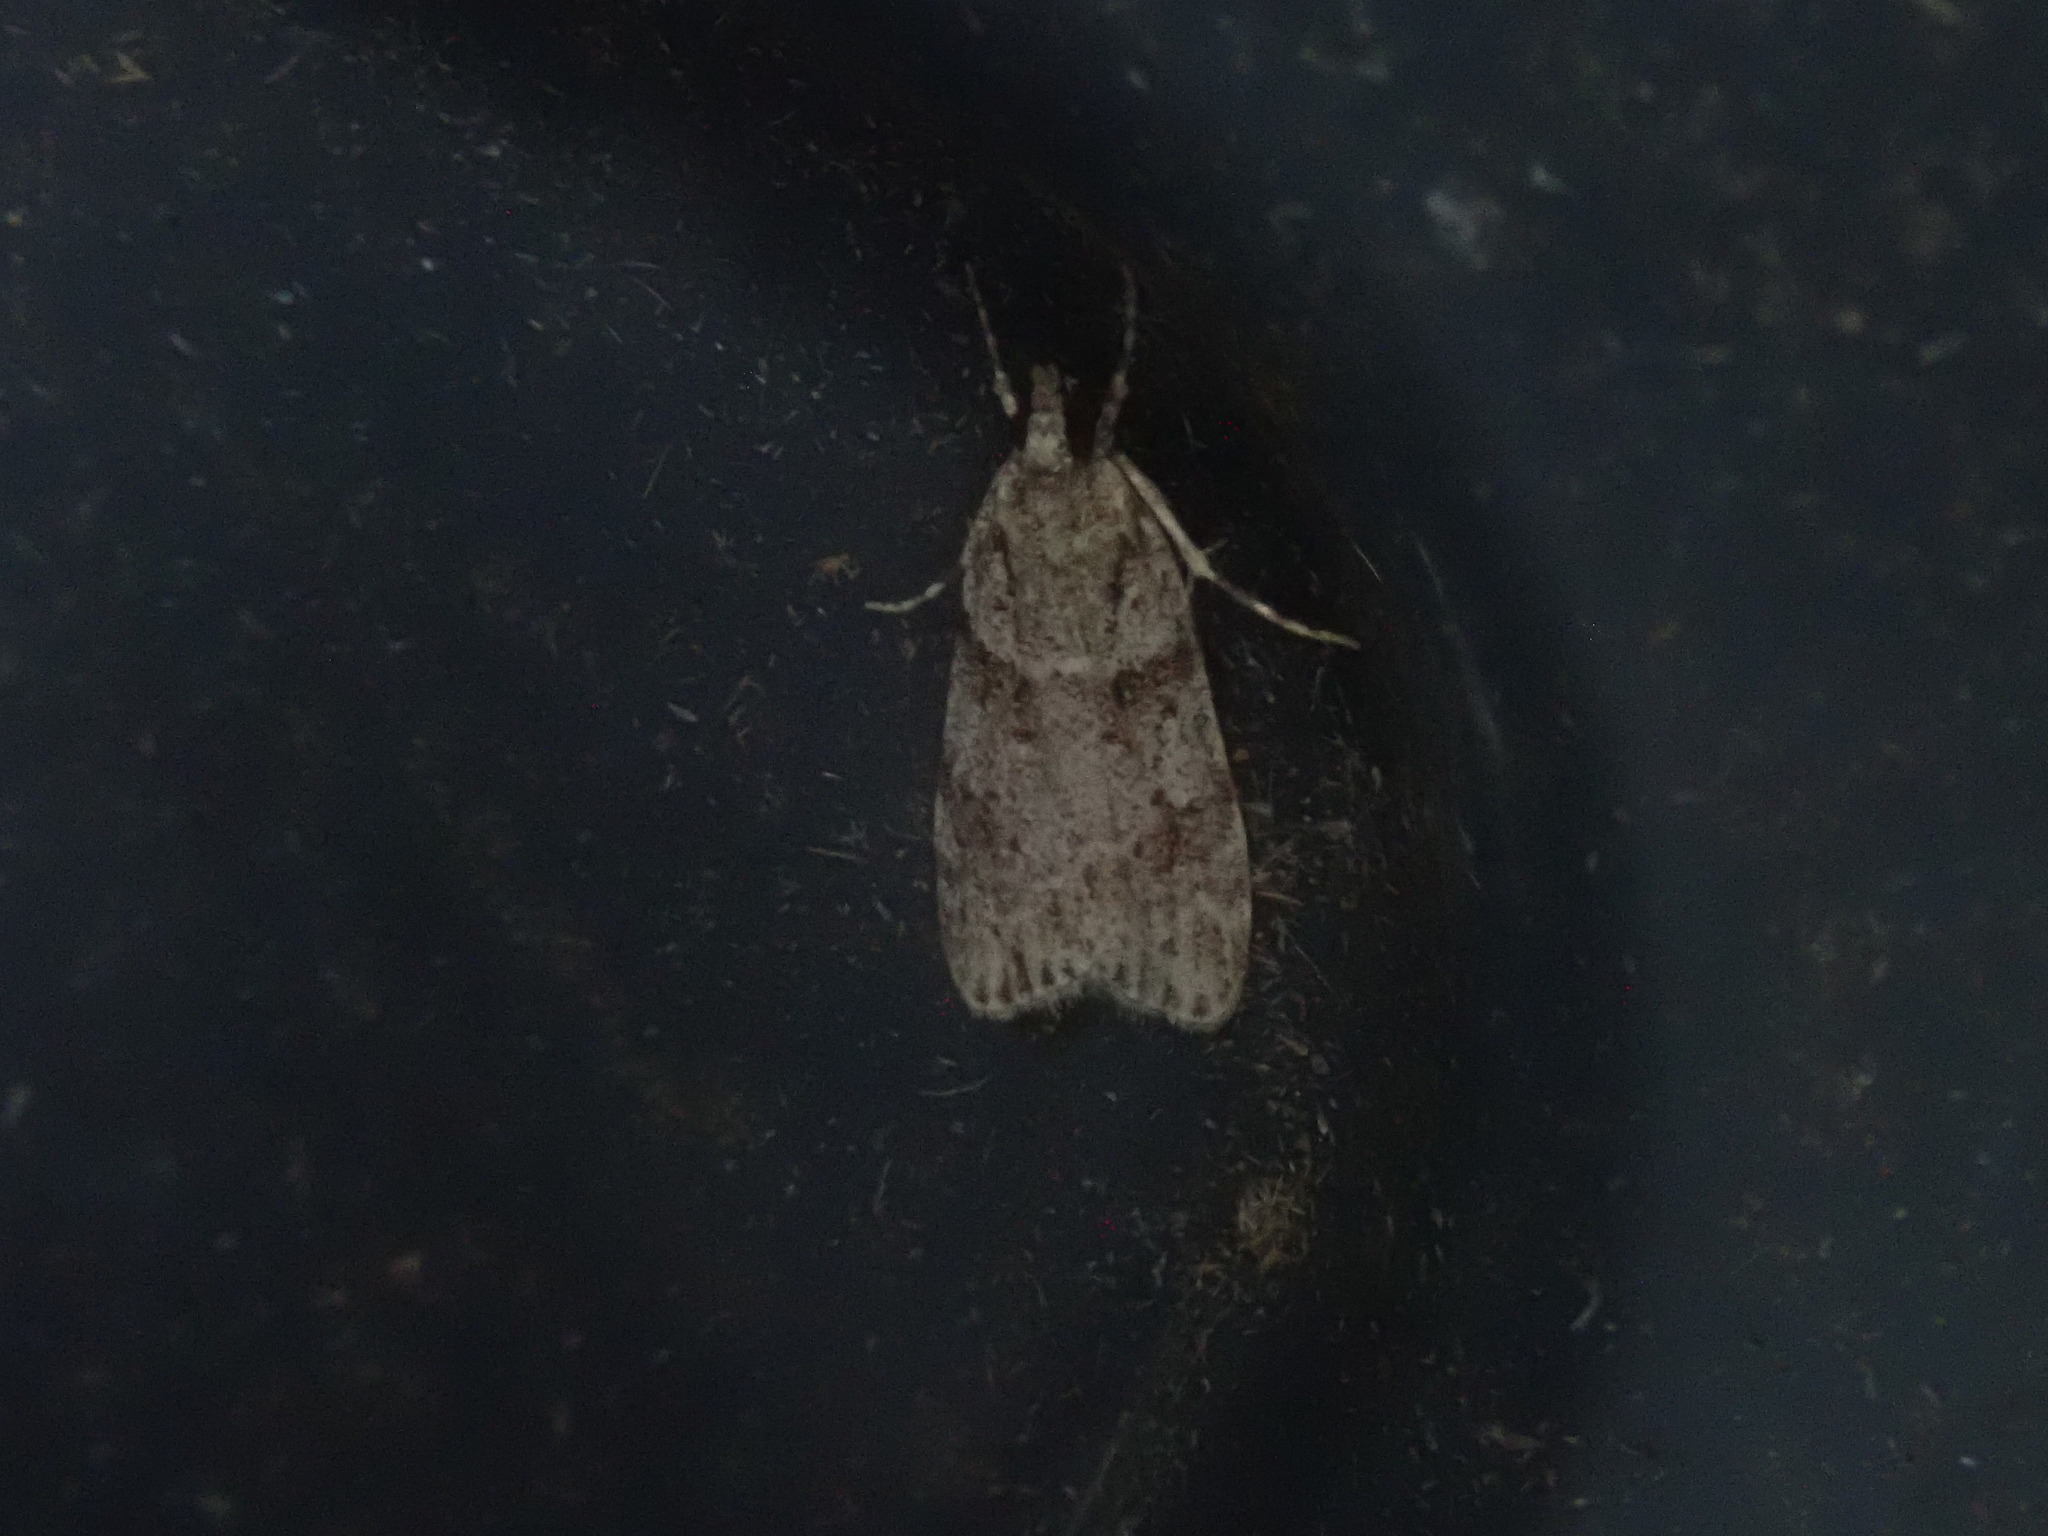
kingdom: Animalia
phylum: Arthropoda
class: Insecta
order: Lepidoptera
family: Crambidae
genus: Scoparia
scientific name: Scoparia biplagialis
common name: Double-striped scoparia moth
